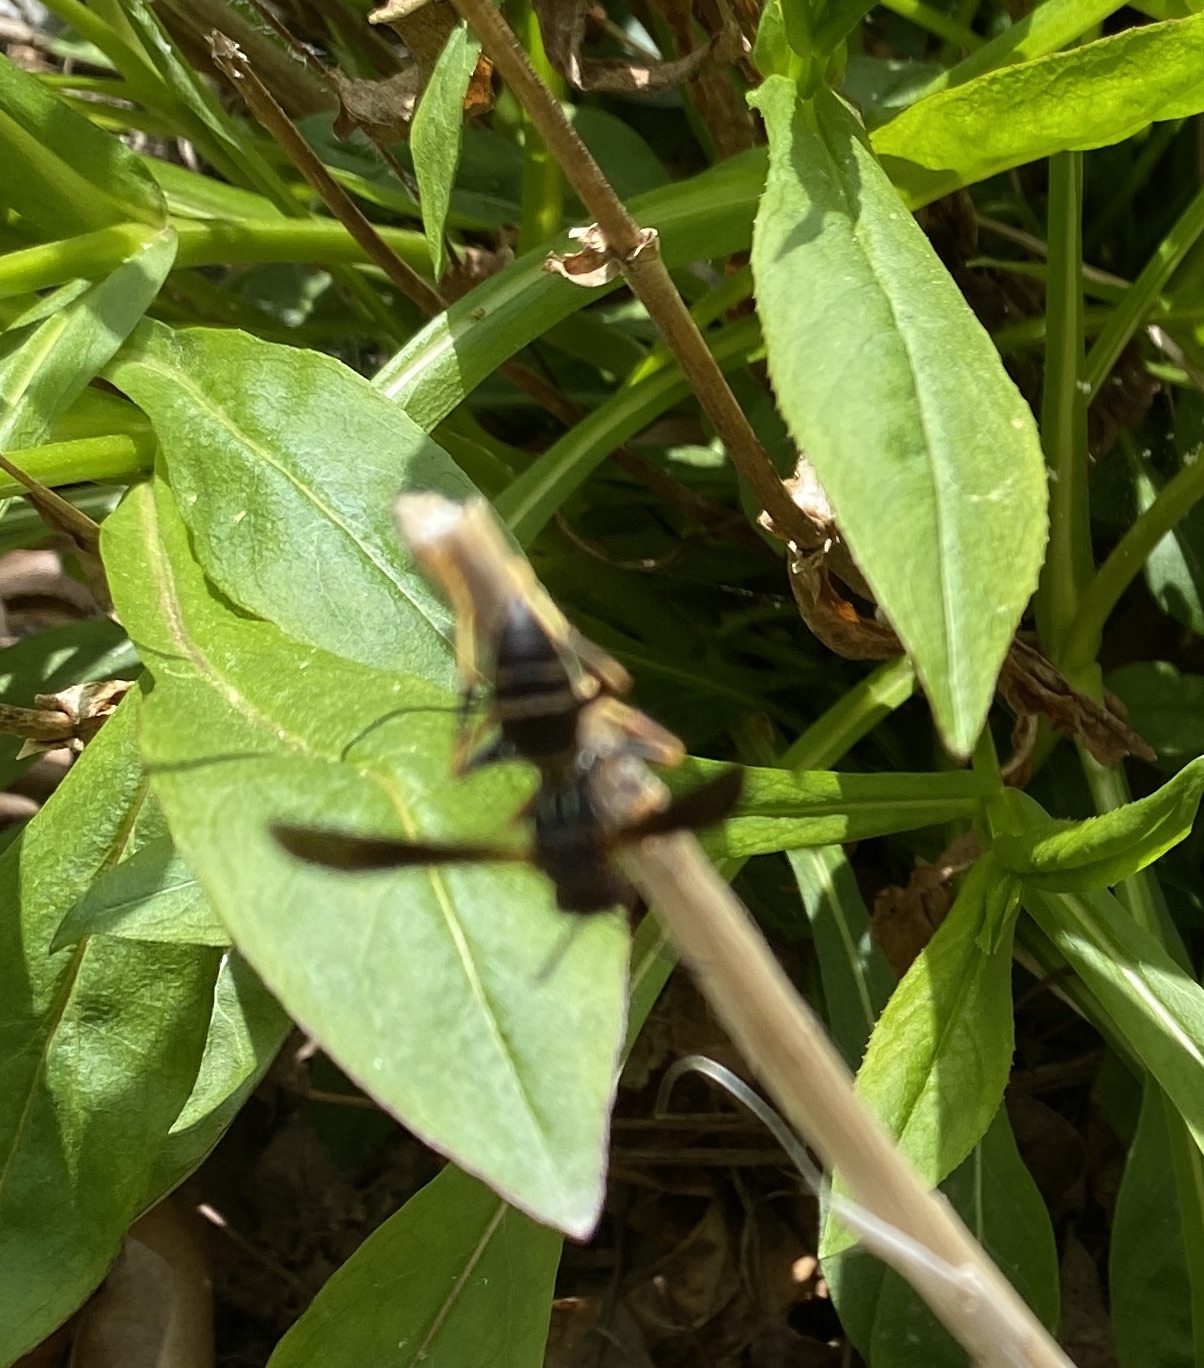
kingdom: Animalia
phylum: Arthropoda
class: Insecta
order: Hymenoptera
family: Eumenidae
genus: Polistes
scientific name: Polistes fuscatus
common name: Dark paper wasp
